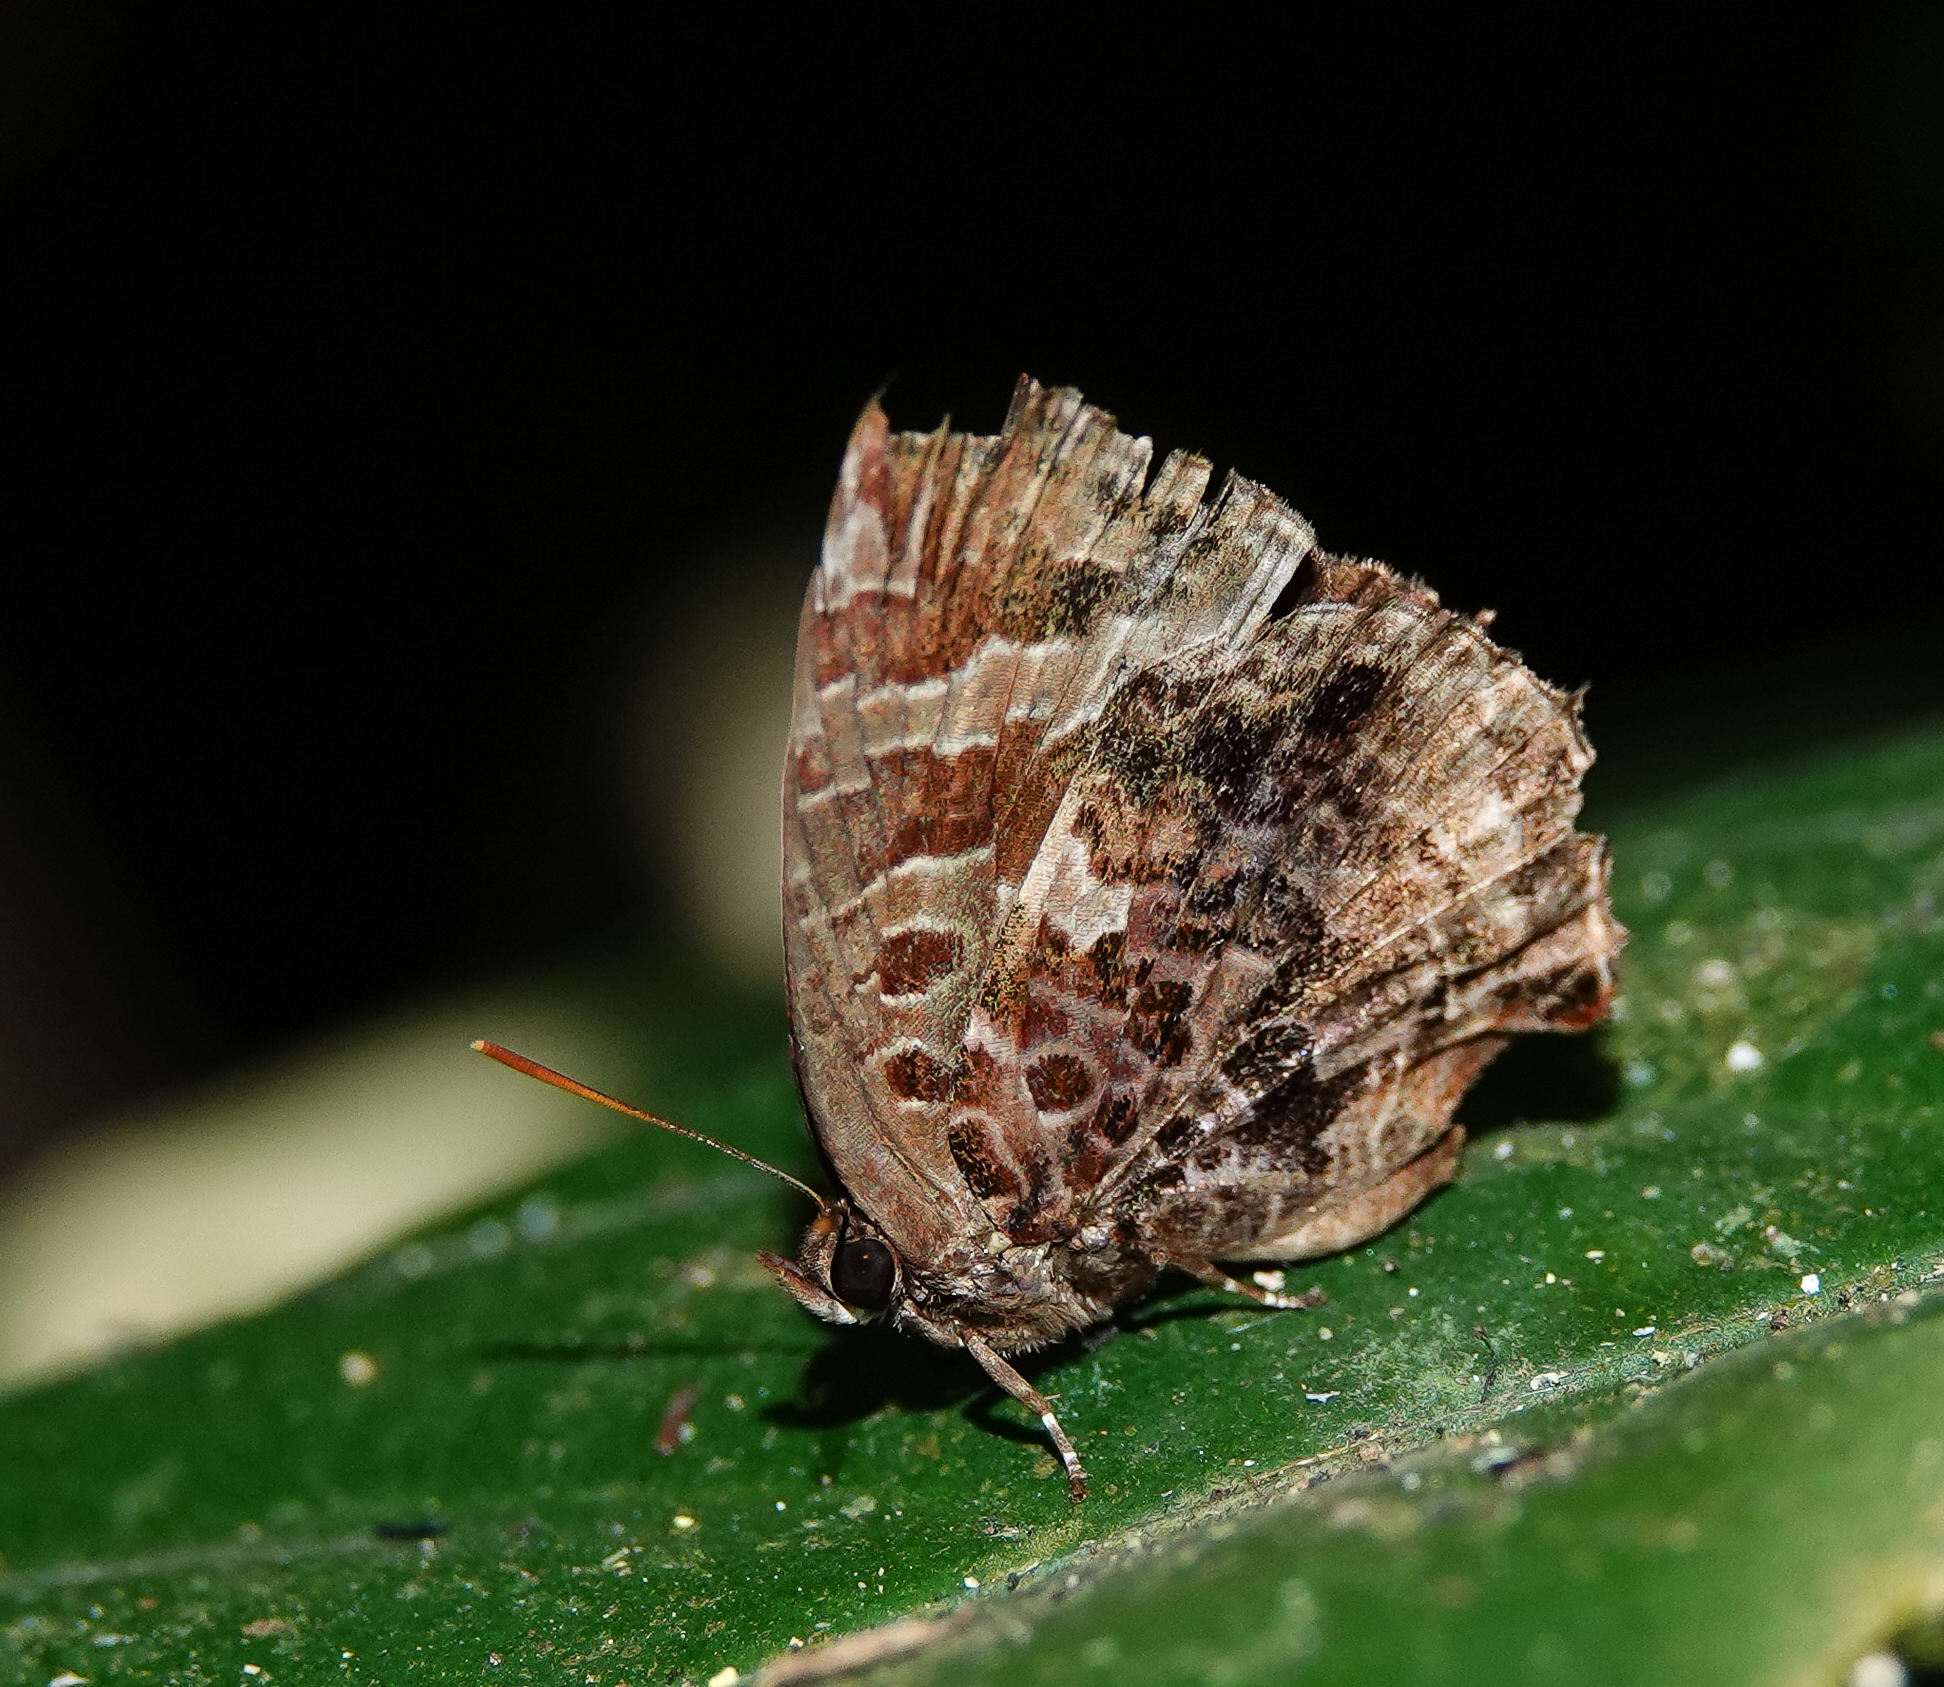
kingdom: Animalia
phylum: Arthropoda
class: Insecta
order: Lepidoptera
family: Lycaenidae
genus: Arhopala
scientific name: Arhopala abseus
